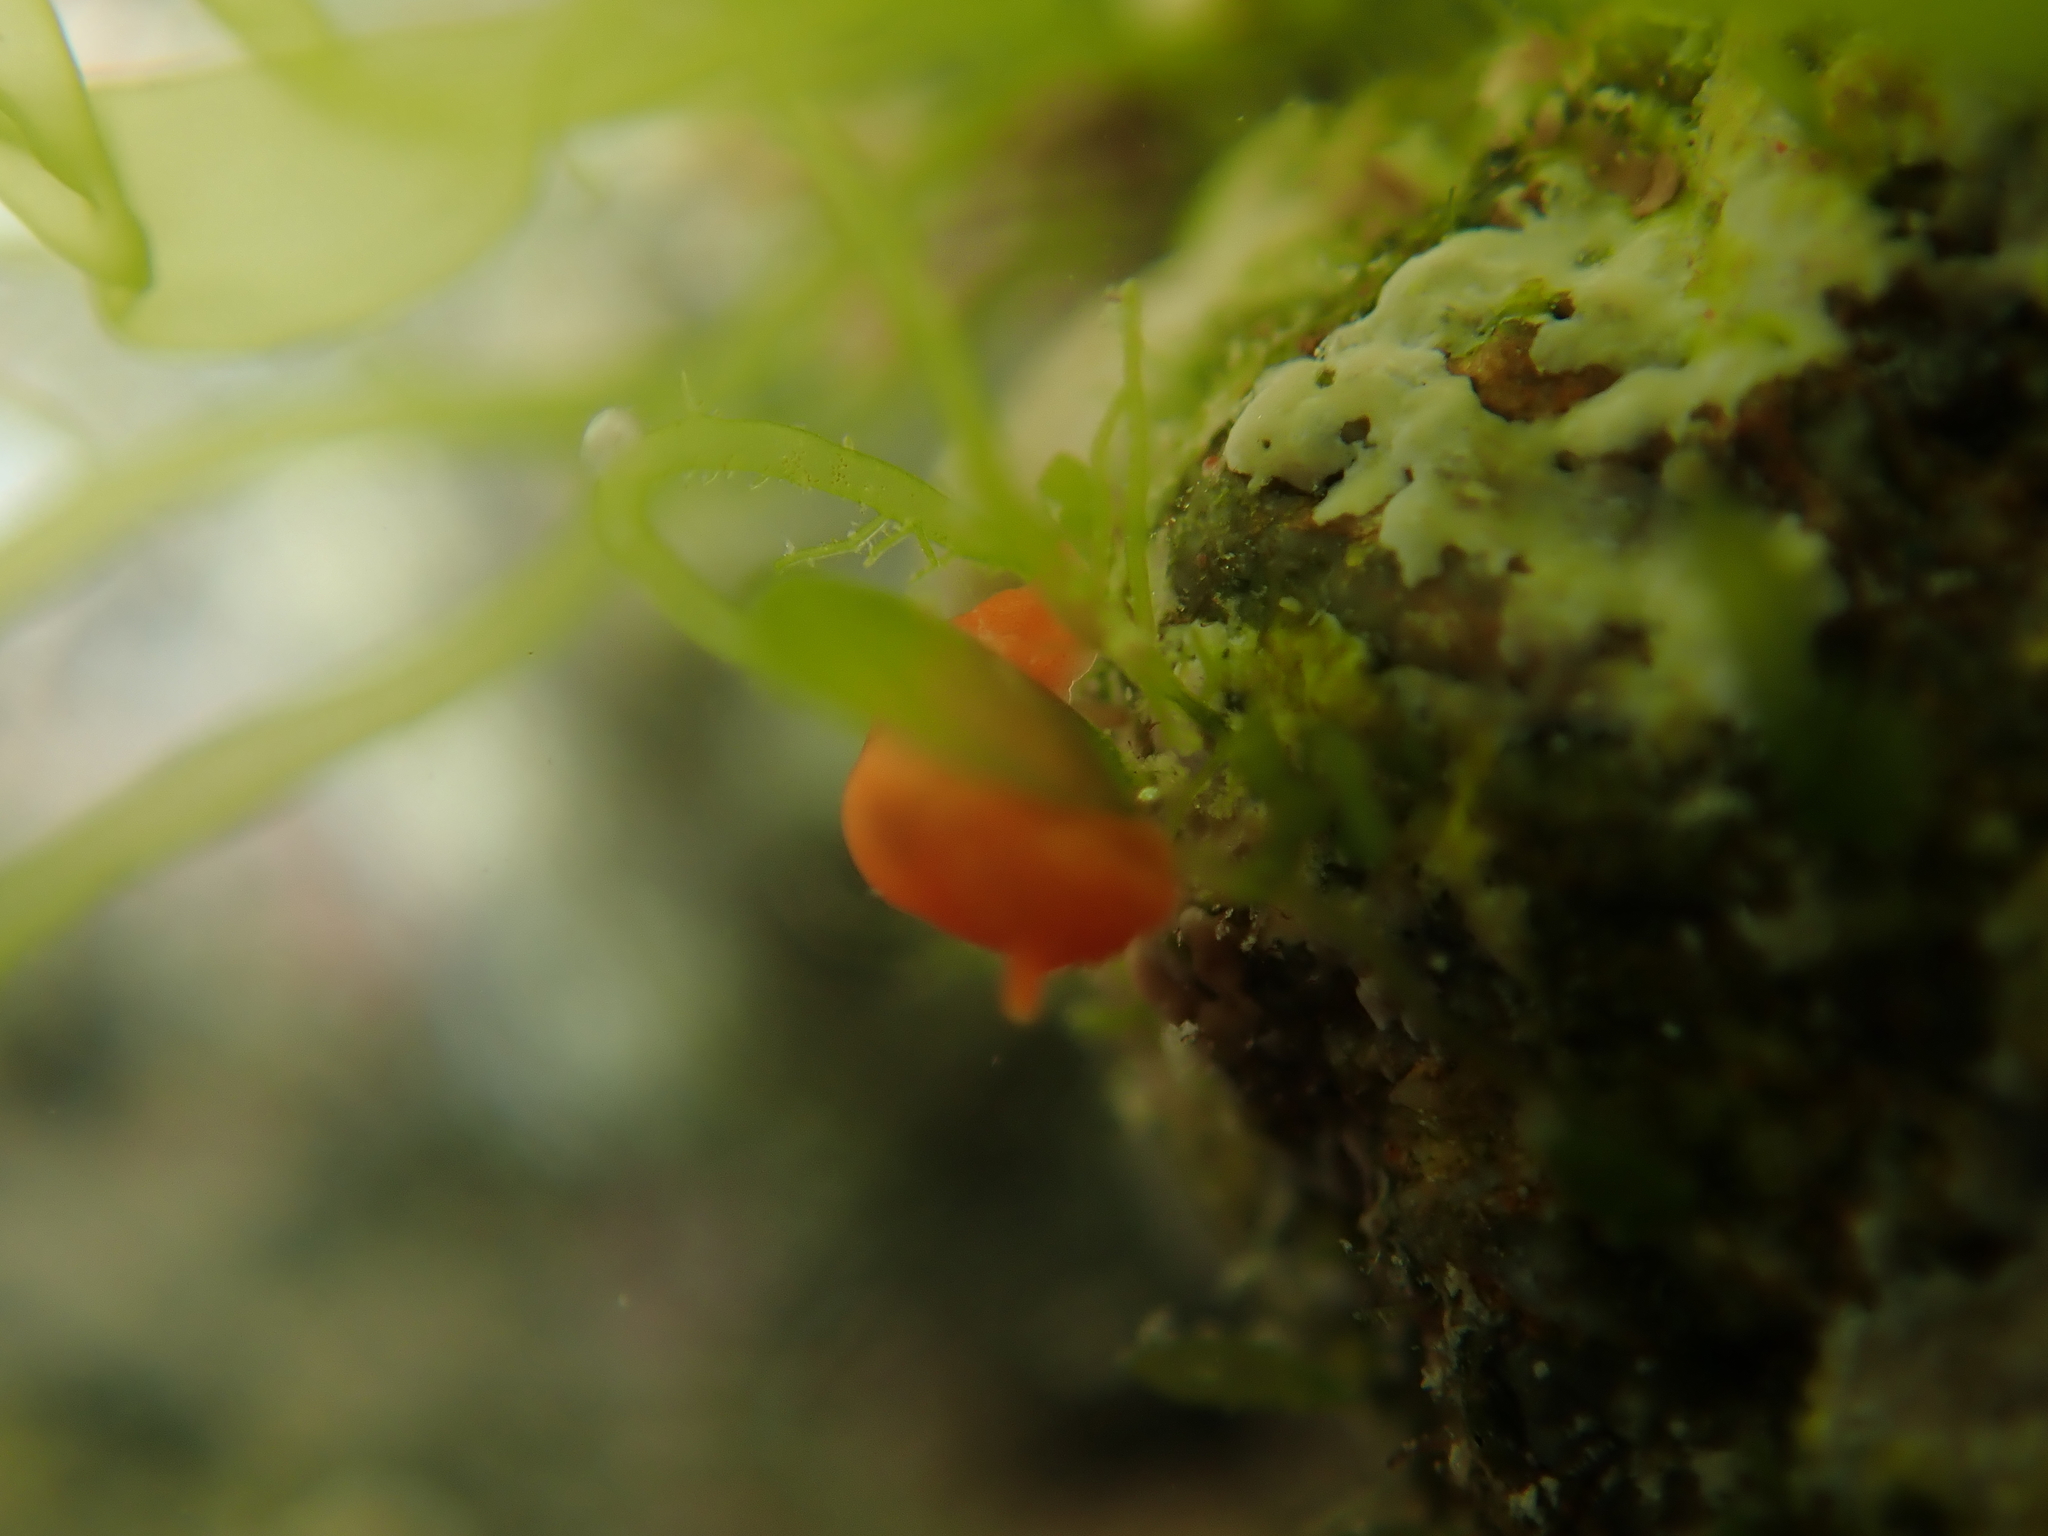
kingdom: Animalia
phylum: Mollusca
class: Gastropoda
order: Nudibranchia
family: Okadaiidae
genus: Vayssierea
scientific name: Vayssierea cinnabarea
